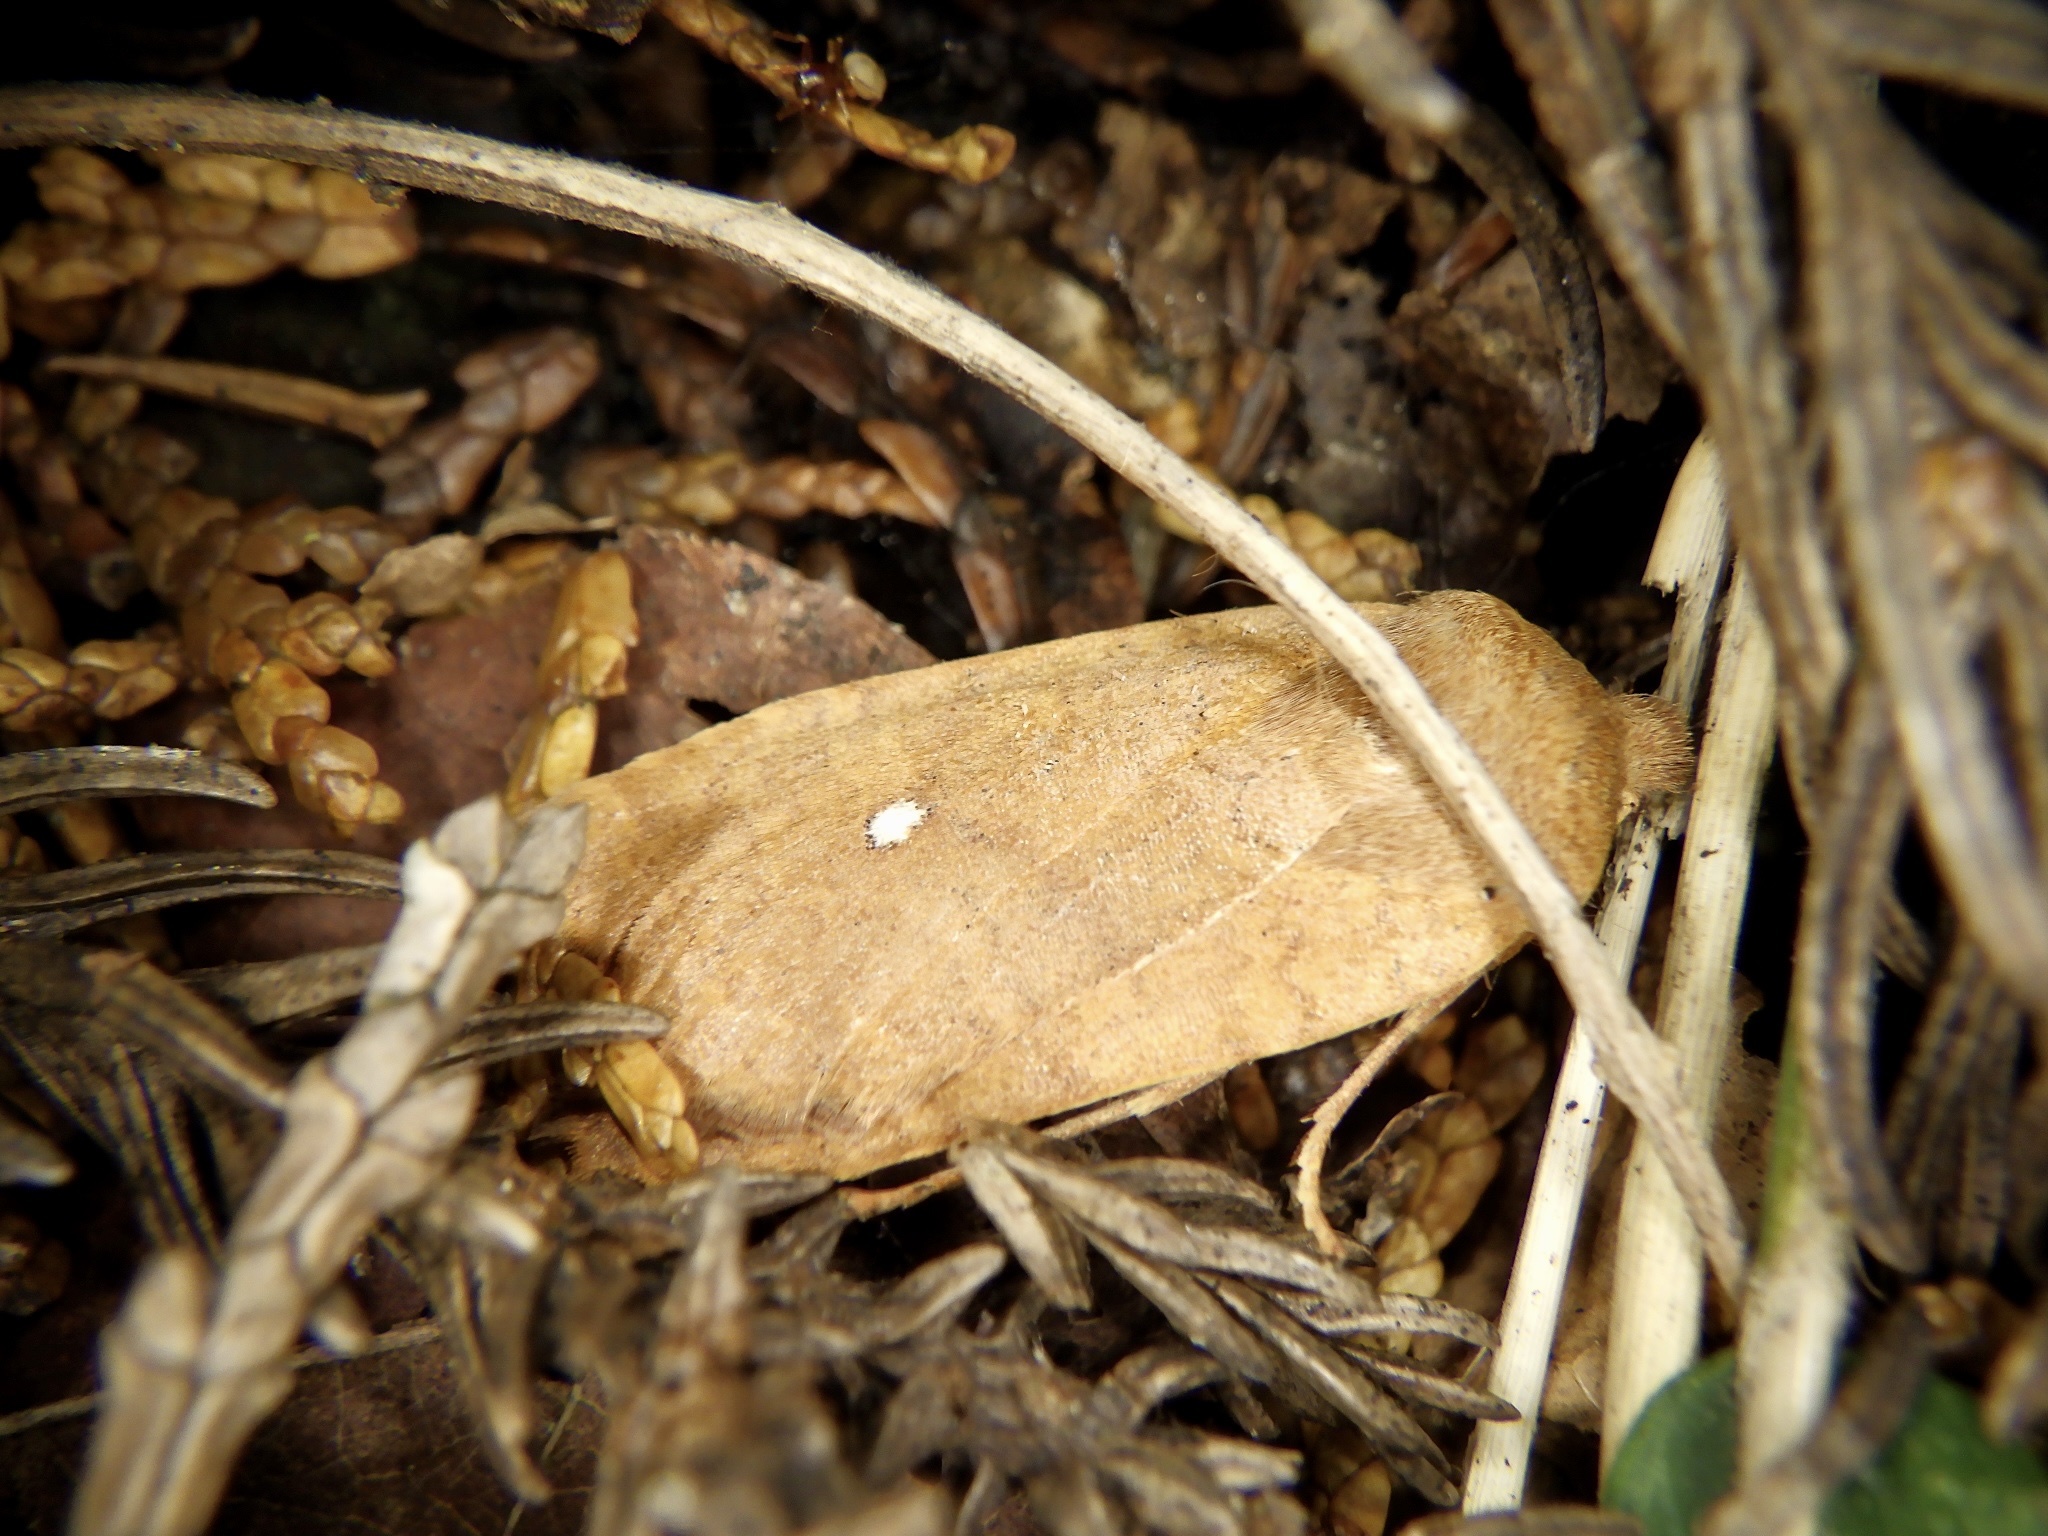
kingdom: Animalia
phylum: Arthropoda
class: Insecta
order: Lepidoptera
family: Noctuidae
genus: Conistra
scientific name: Conistra albipuncta
